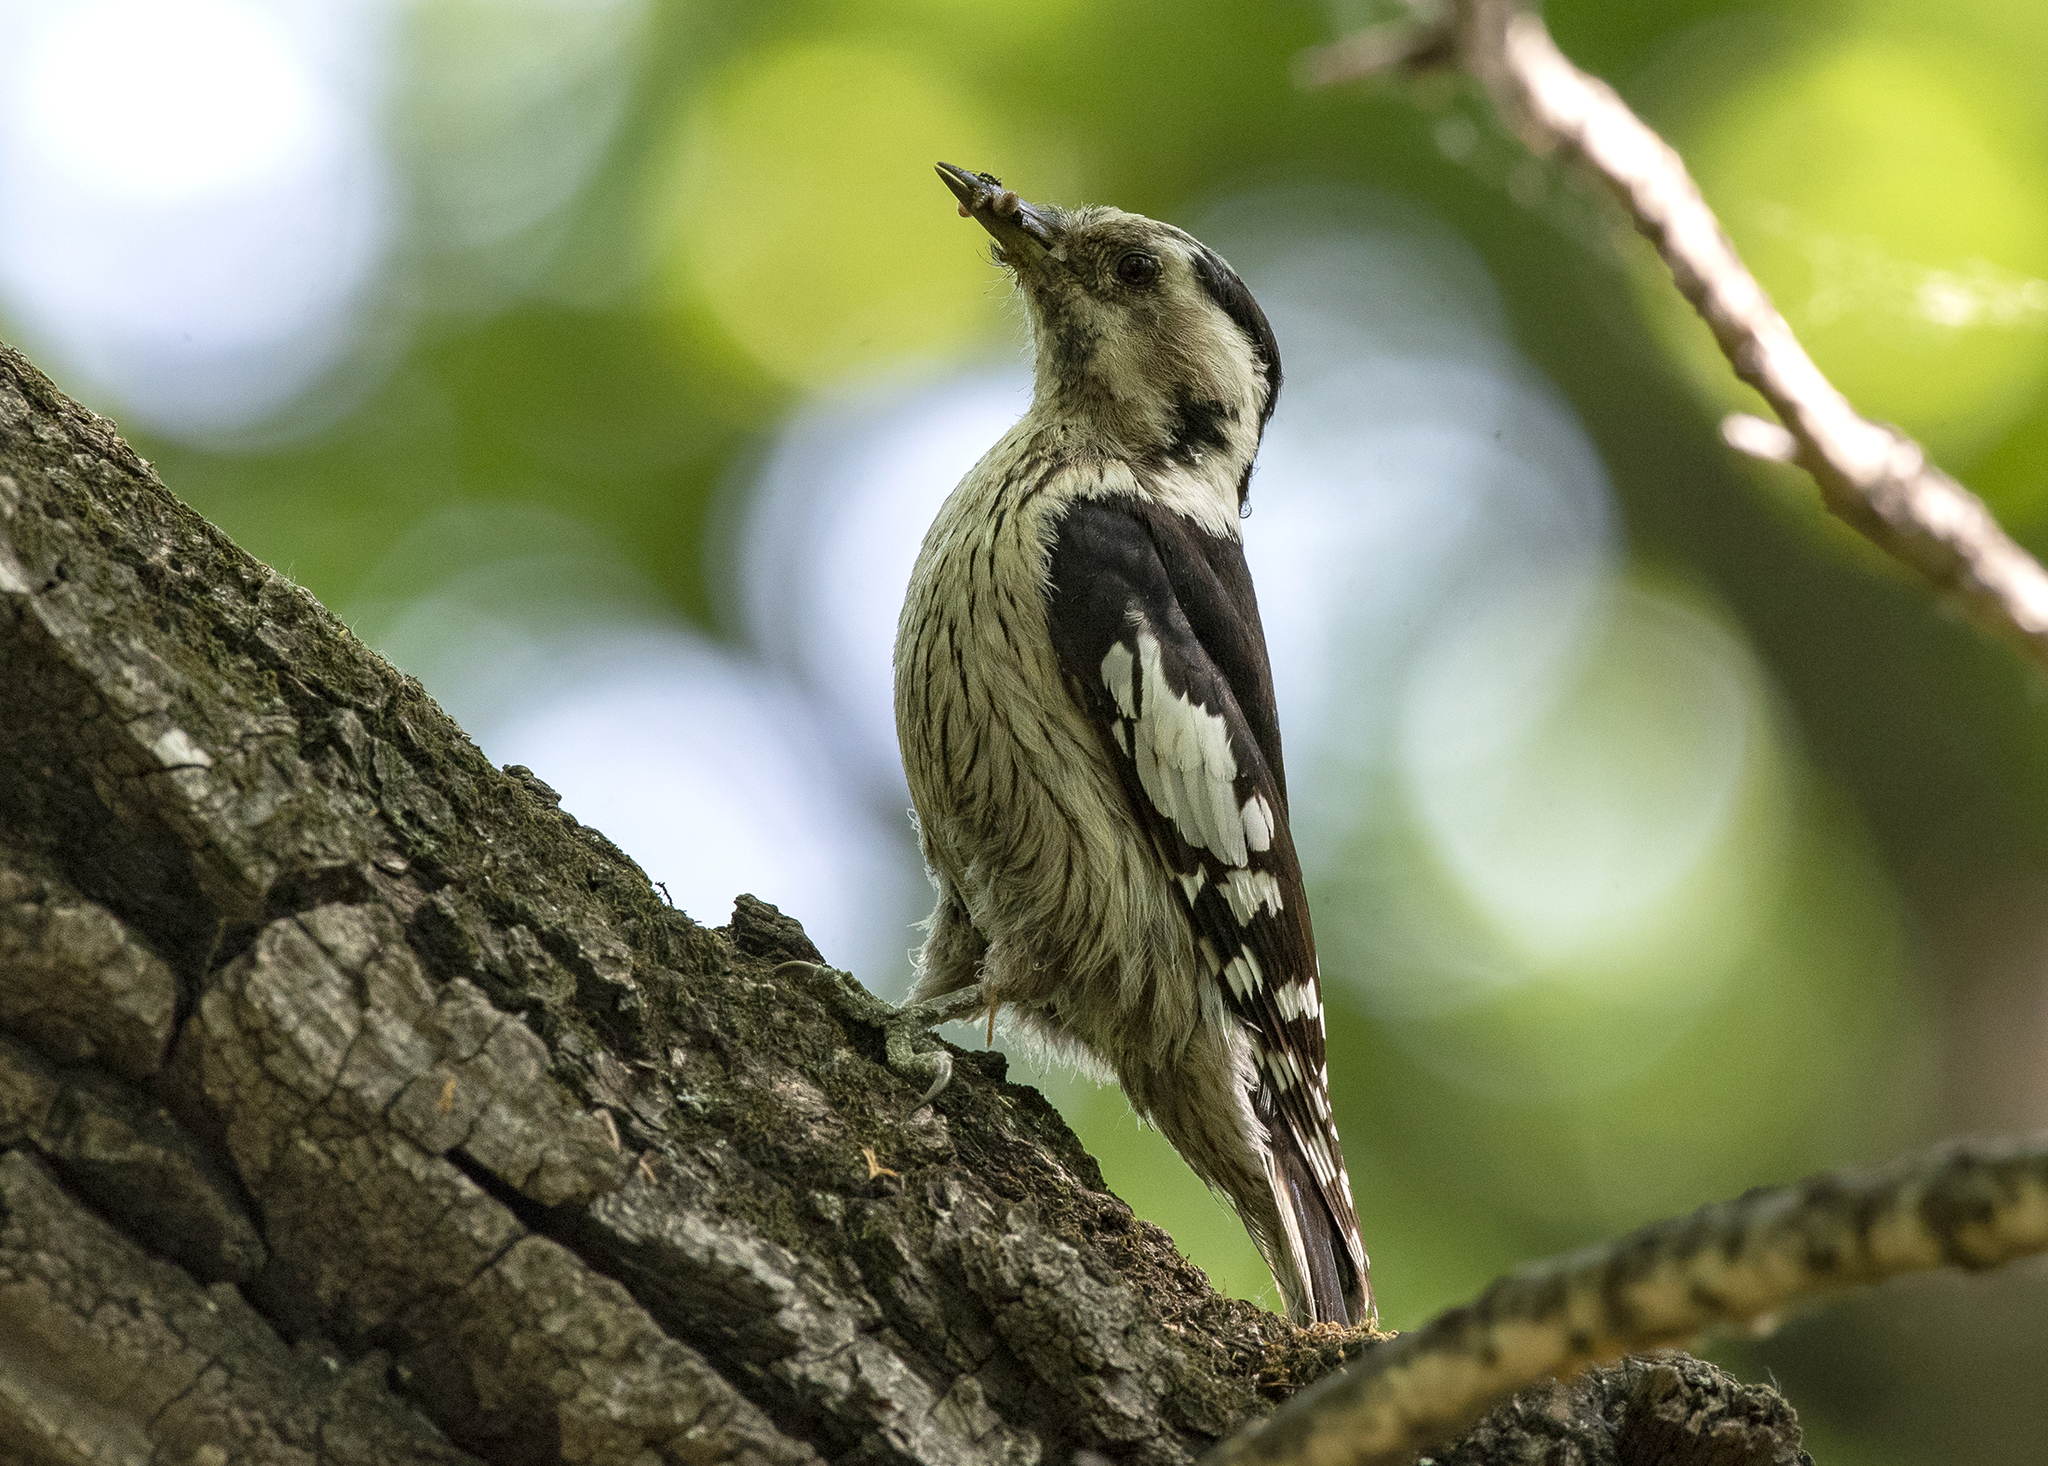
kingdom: Animalia
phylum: Chordata
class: Aves
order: Piciformes
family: Picidae
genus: Yungipicus
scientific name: Yungipicus canicapillus
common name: Grey-capped pygmy woodpecker
